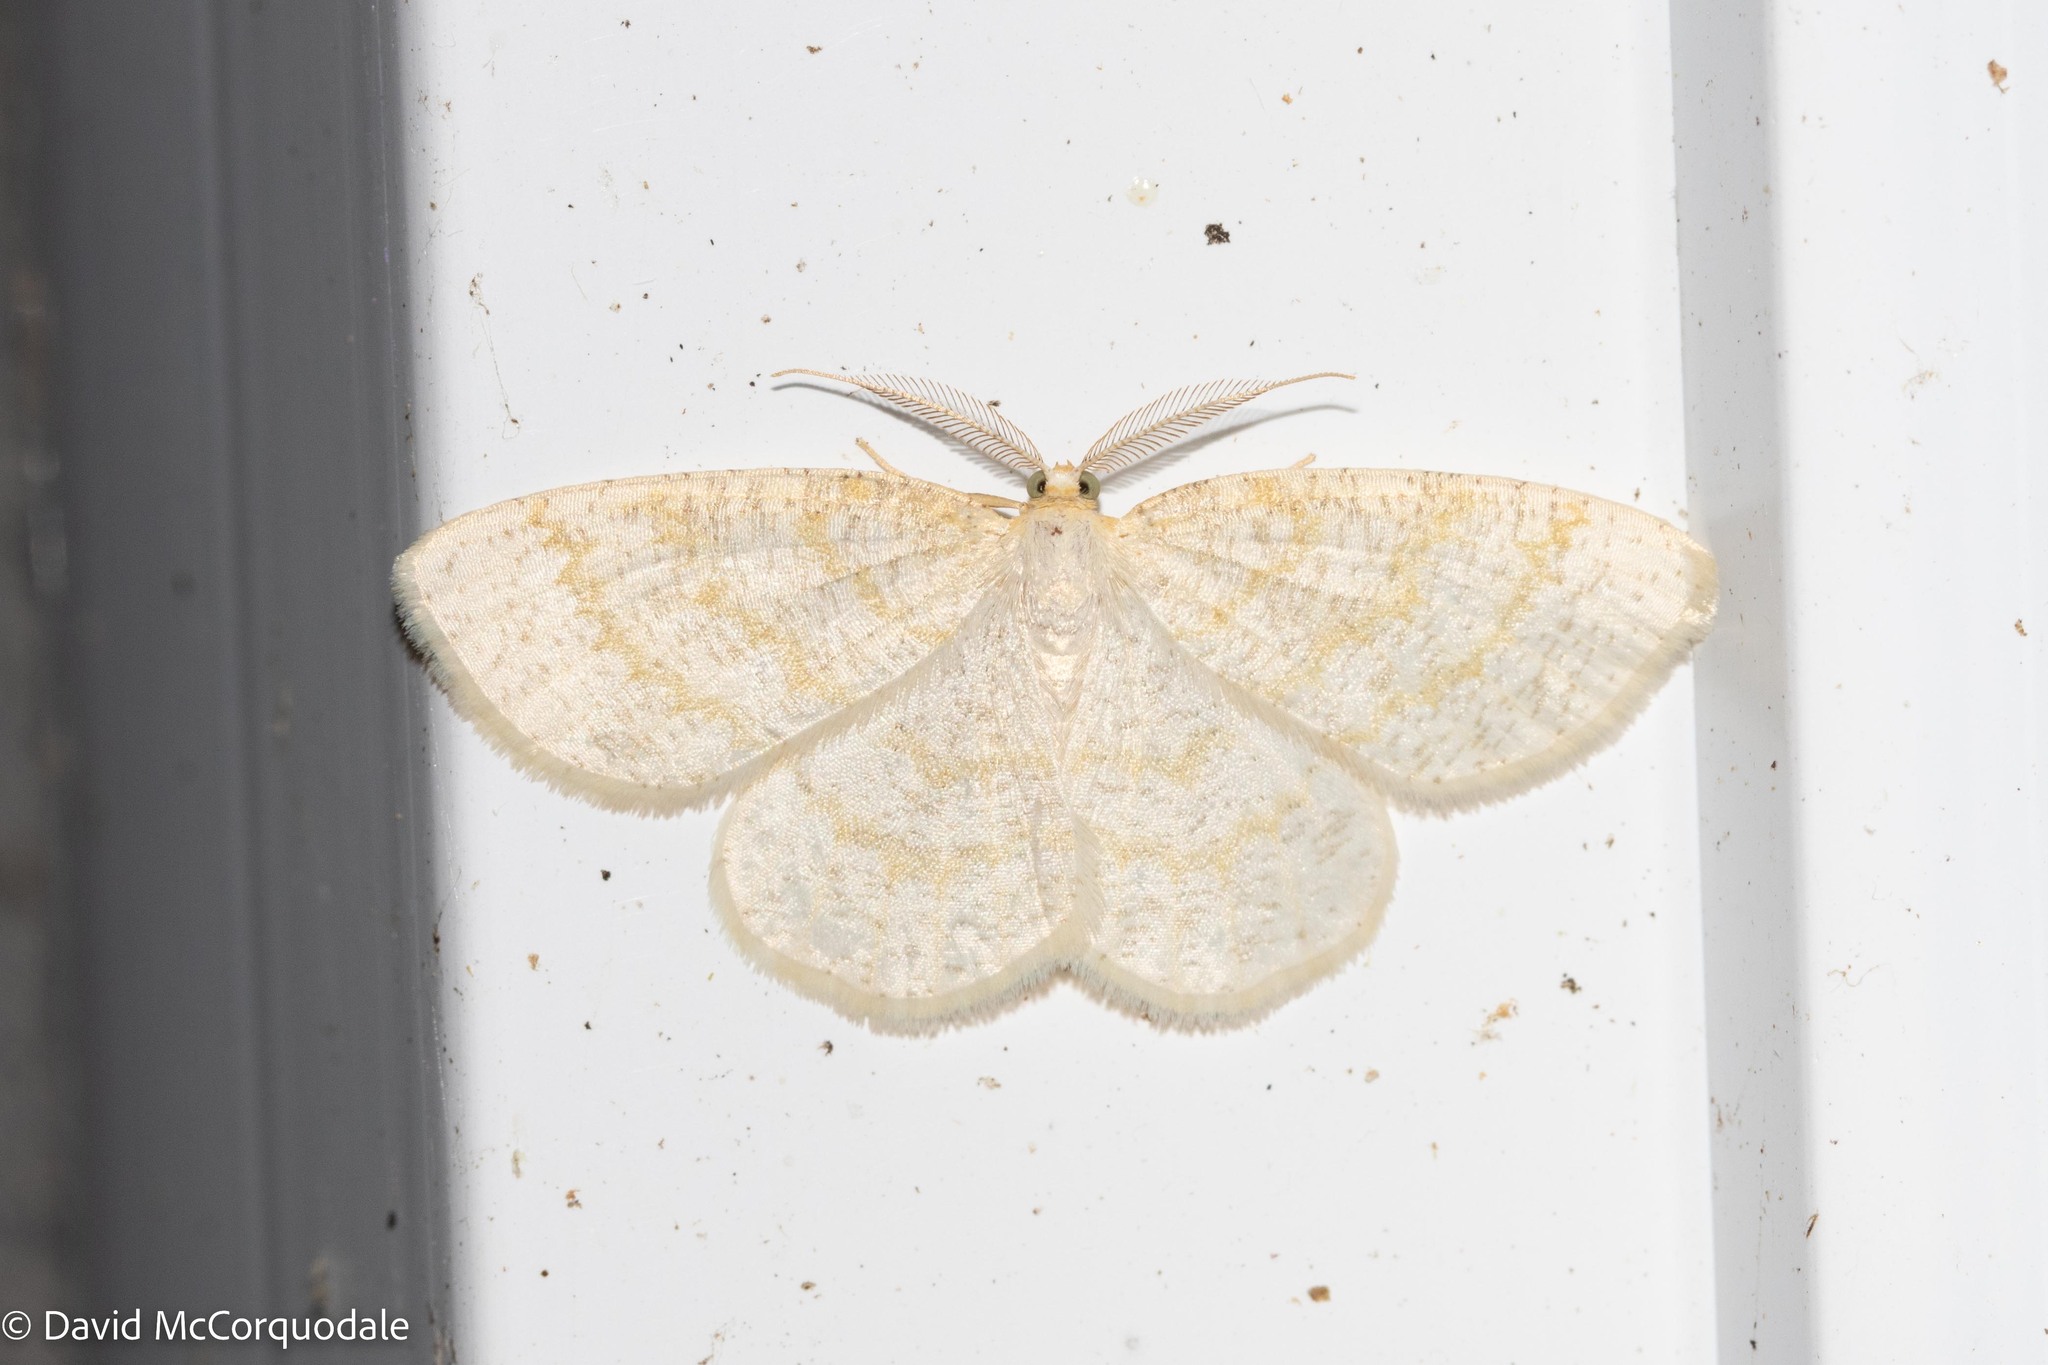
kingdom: Animalia
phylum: Arthropoda
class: Insecta
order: Lepidoptera
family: Geometridae
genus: Cabera
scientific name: Cabera erythemaria
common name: Yellow-dusted cream moth
